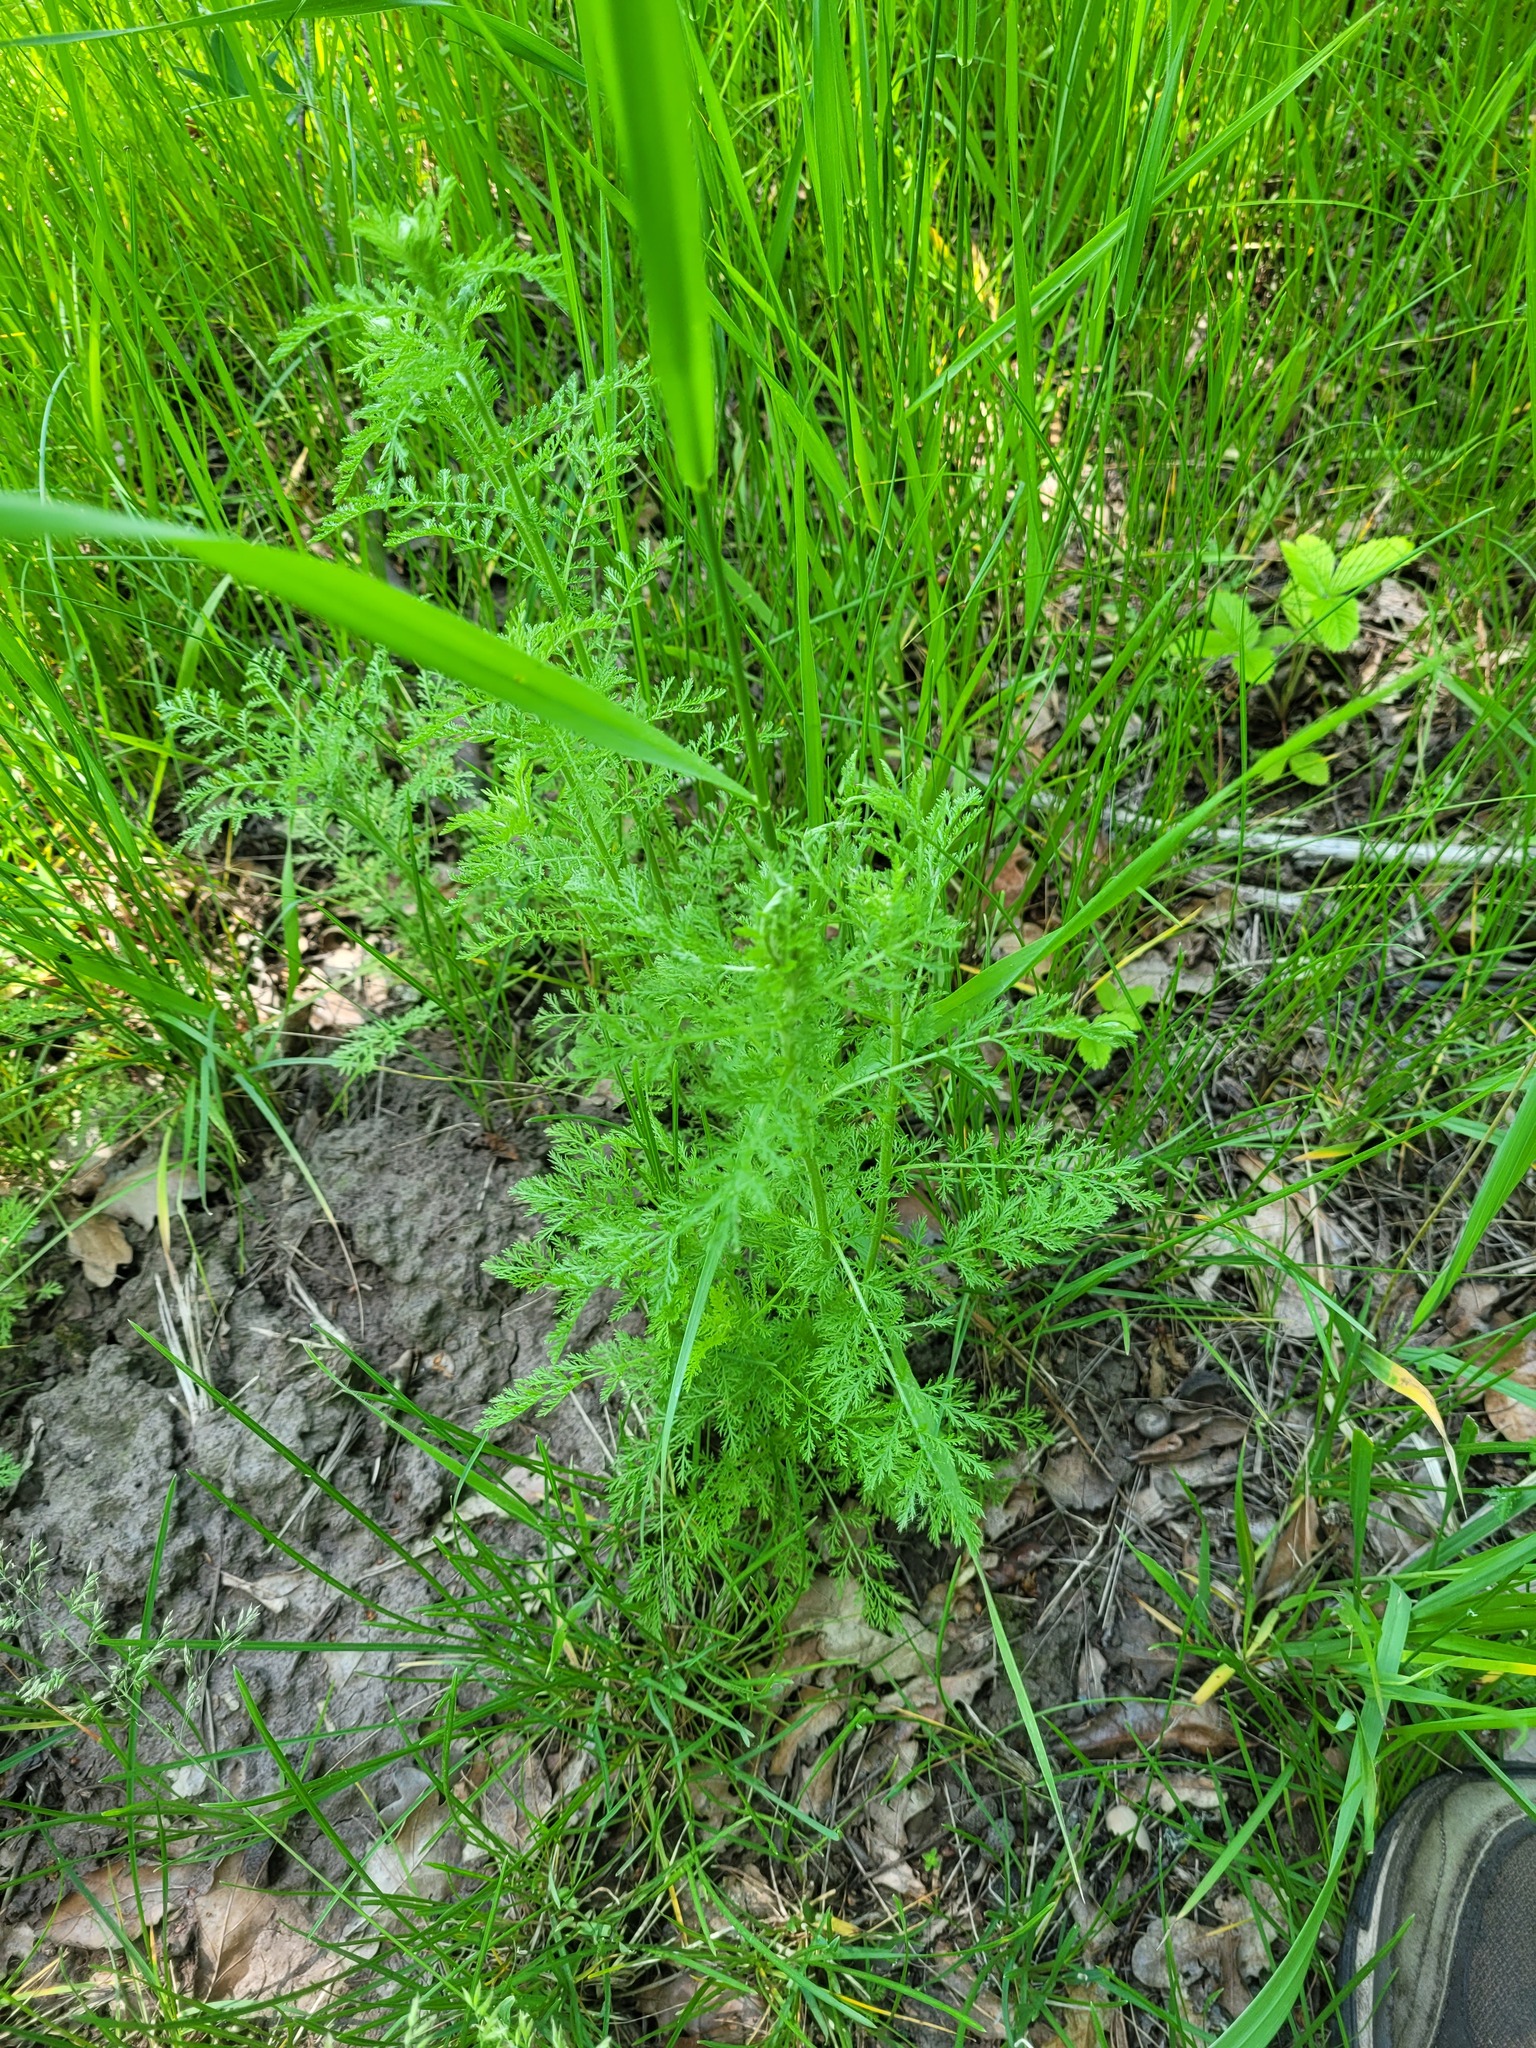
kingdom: Plantae
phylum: Tracheophyta
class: Magnoliopsida
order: Asterales
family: Asteraceae
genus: Achillea
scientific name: Achillea nobilis
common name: Noble yarrow
